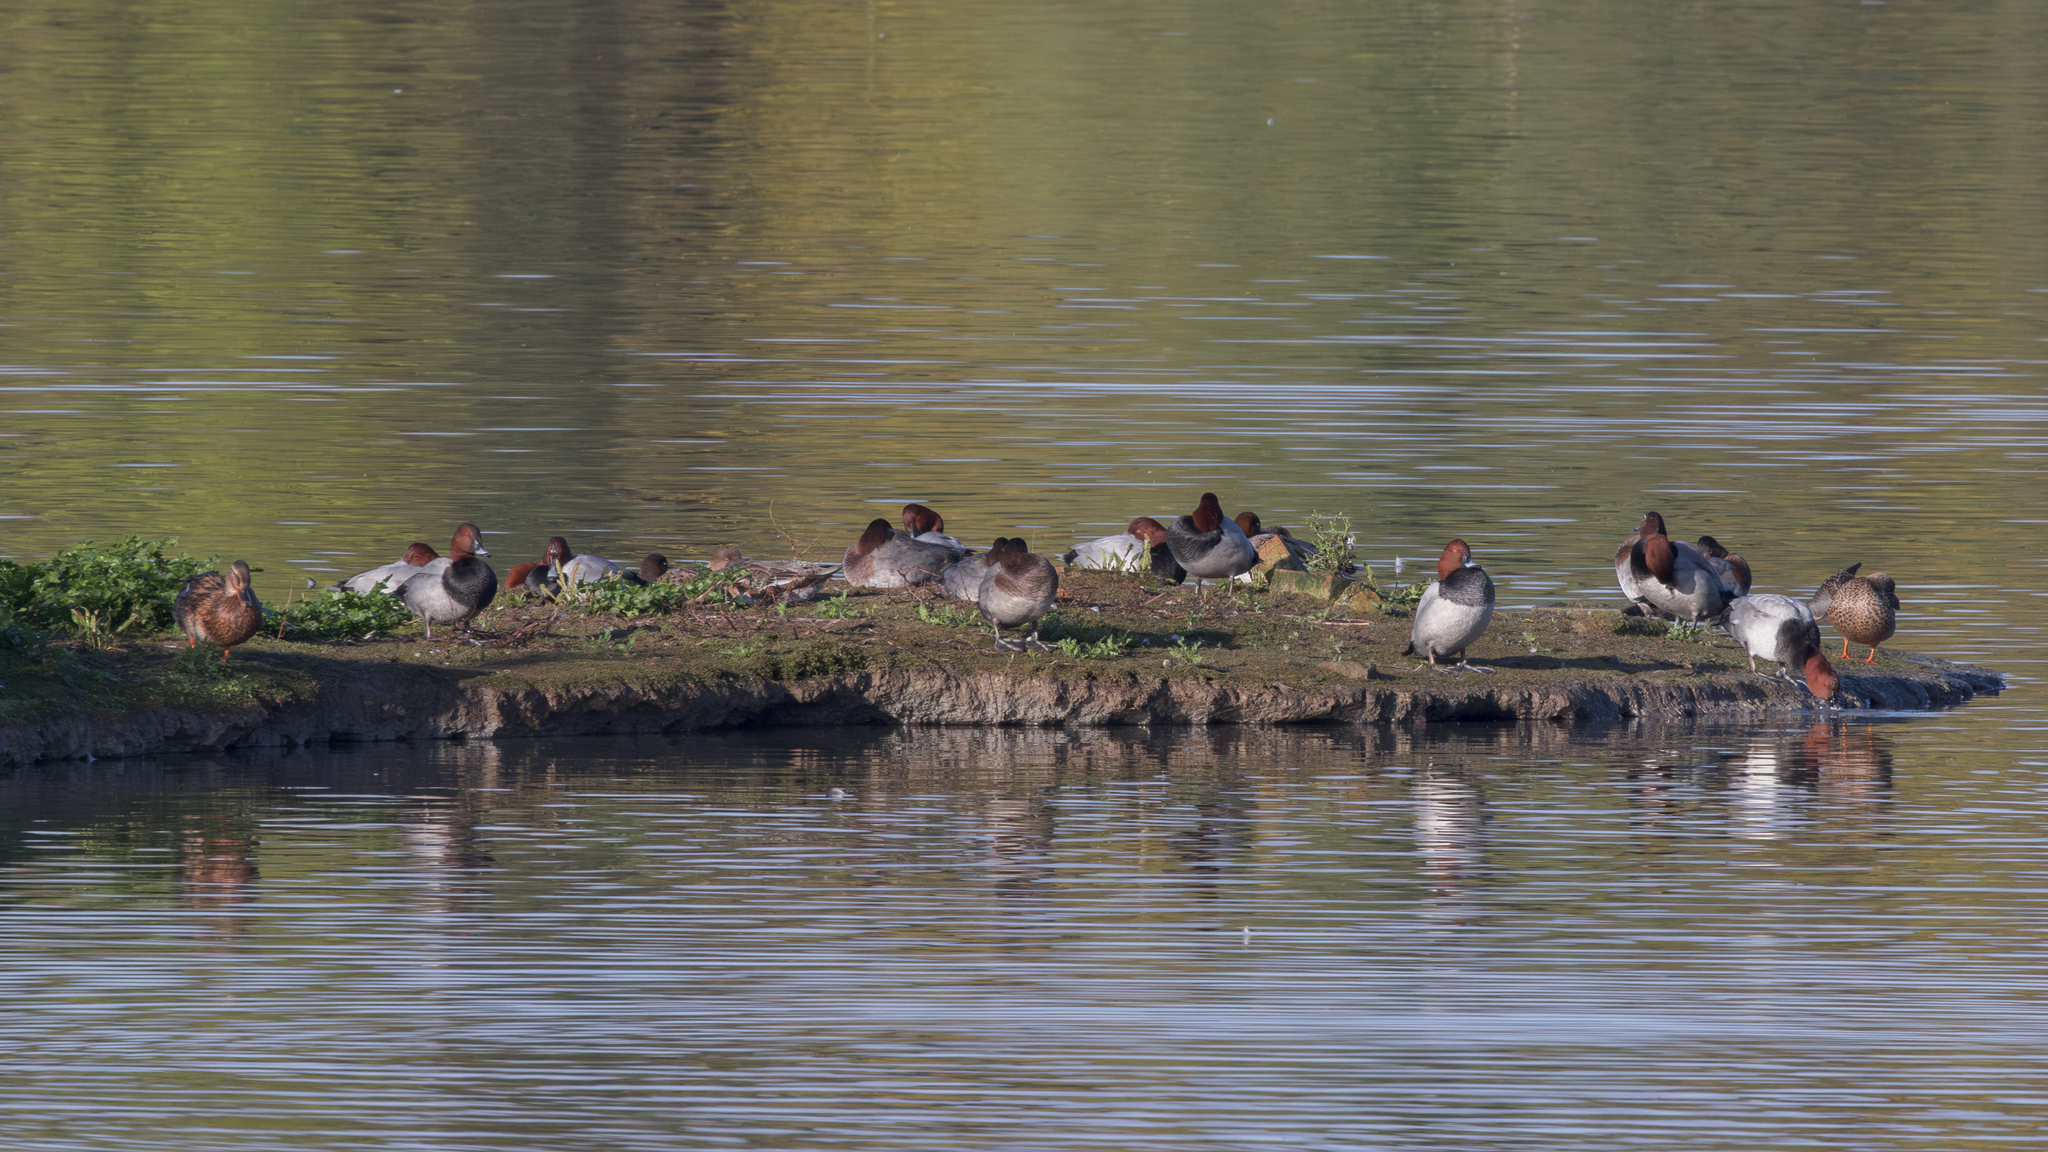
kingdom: Animalia
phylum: Chordata
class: Aves
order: Anseriformes
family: Anatidae
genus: Aythya
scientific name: Aythya ferina
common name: Common pochard
